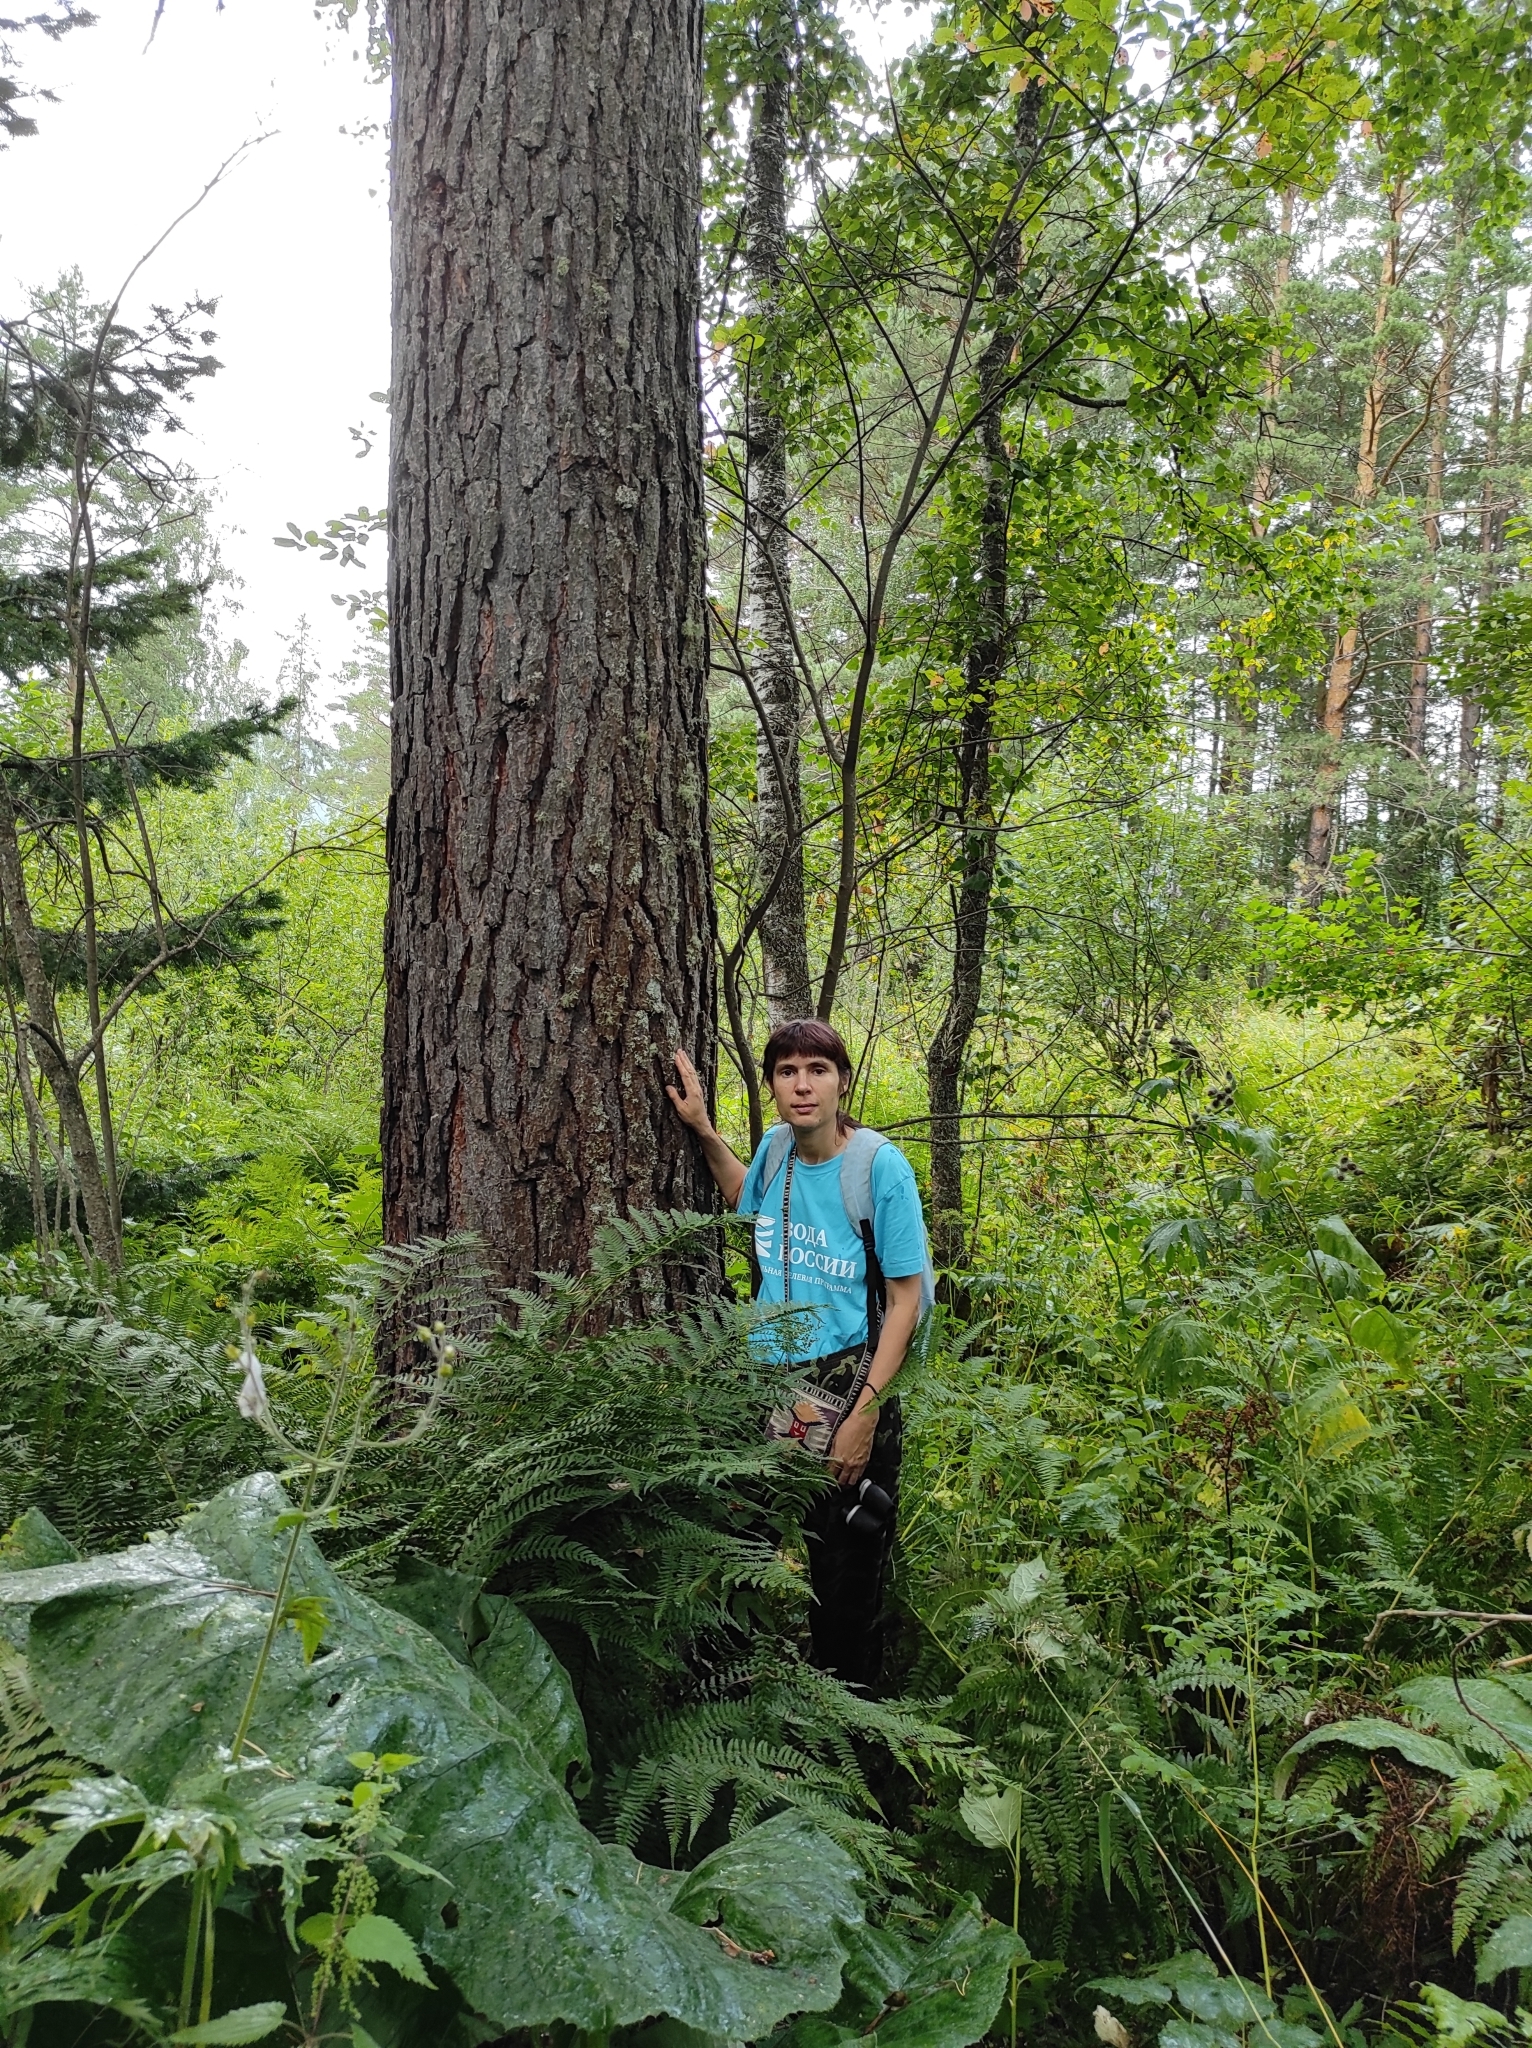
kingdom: Plantae
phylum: Tracheophyta
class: Pinopsida
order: Pinales
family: Pinaceae
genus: Pinus
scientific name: Pinus sylvestris
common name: Scots pine
